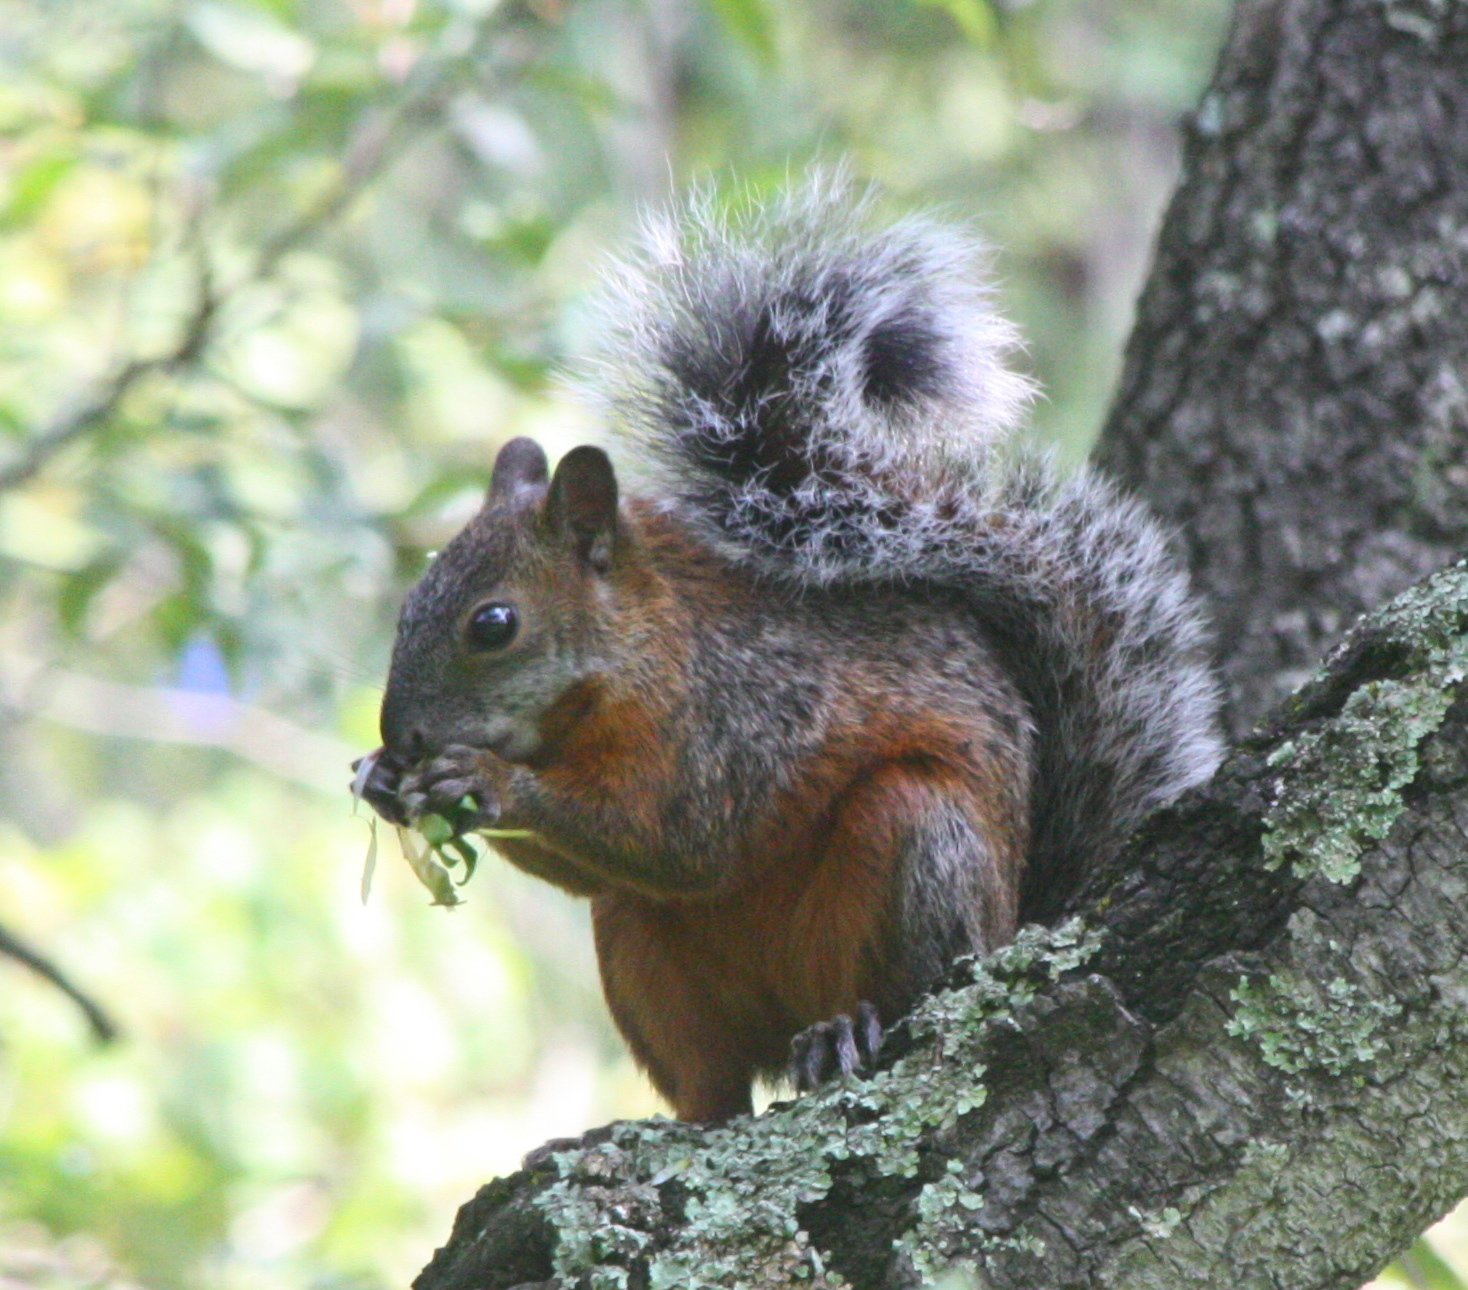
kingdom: Animalia
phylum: Chordata
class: Mammalia
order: Rodentia
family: Sciuridae
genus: Sciurus
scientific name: Sciurus aureogaster
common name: Red-bellied squirrel
